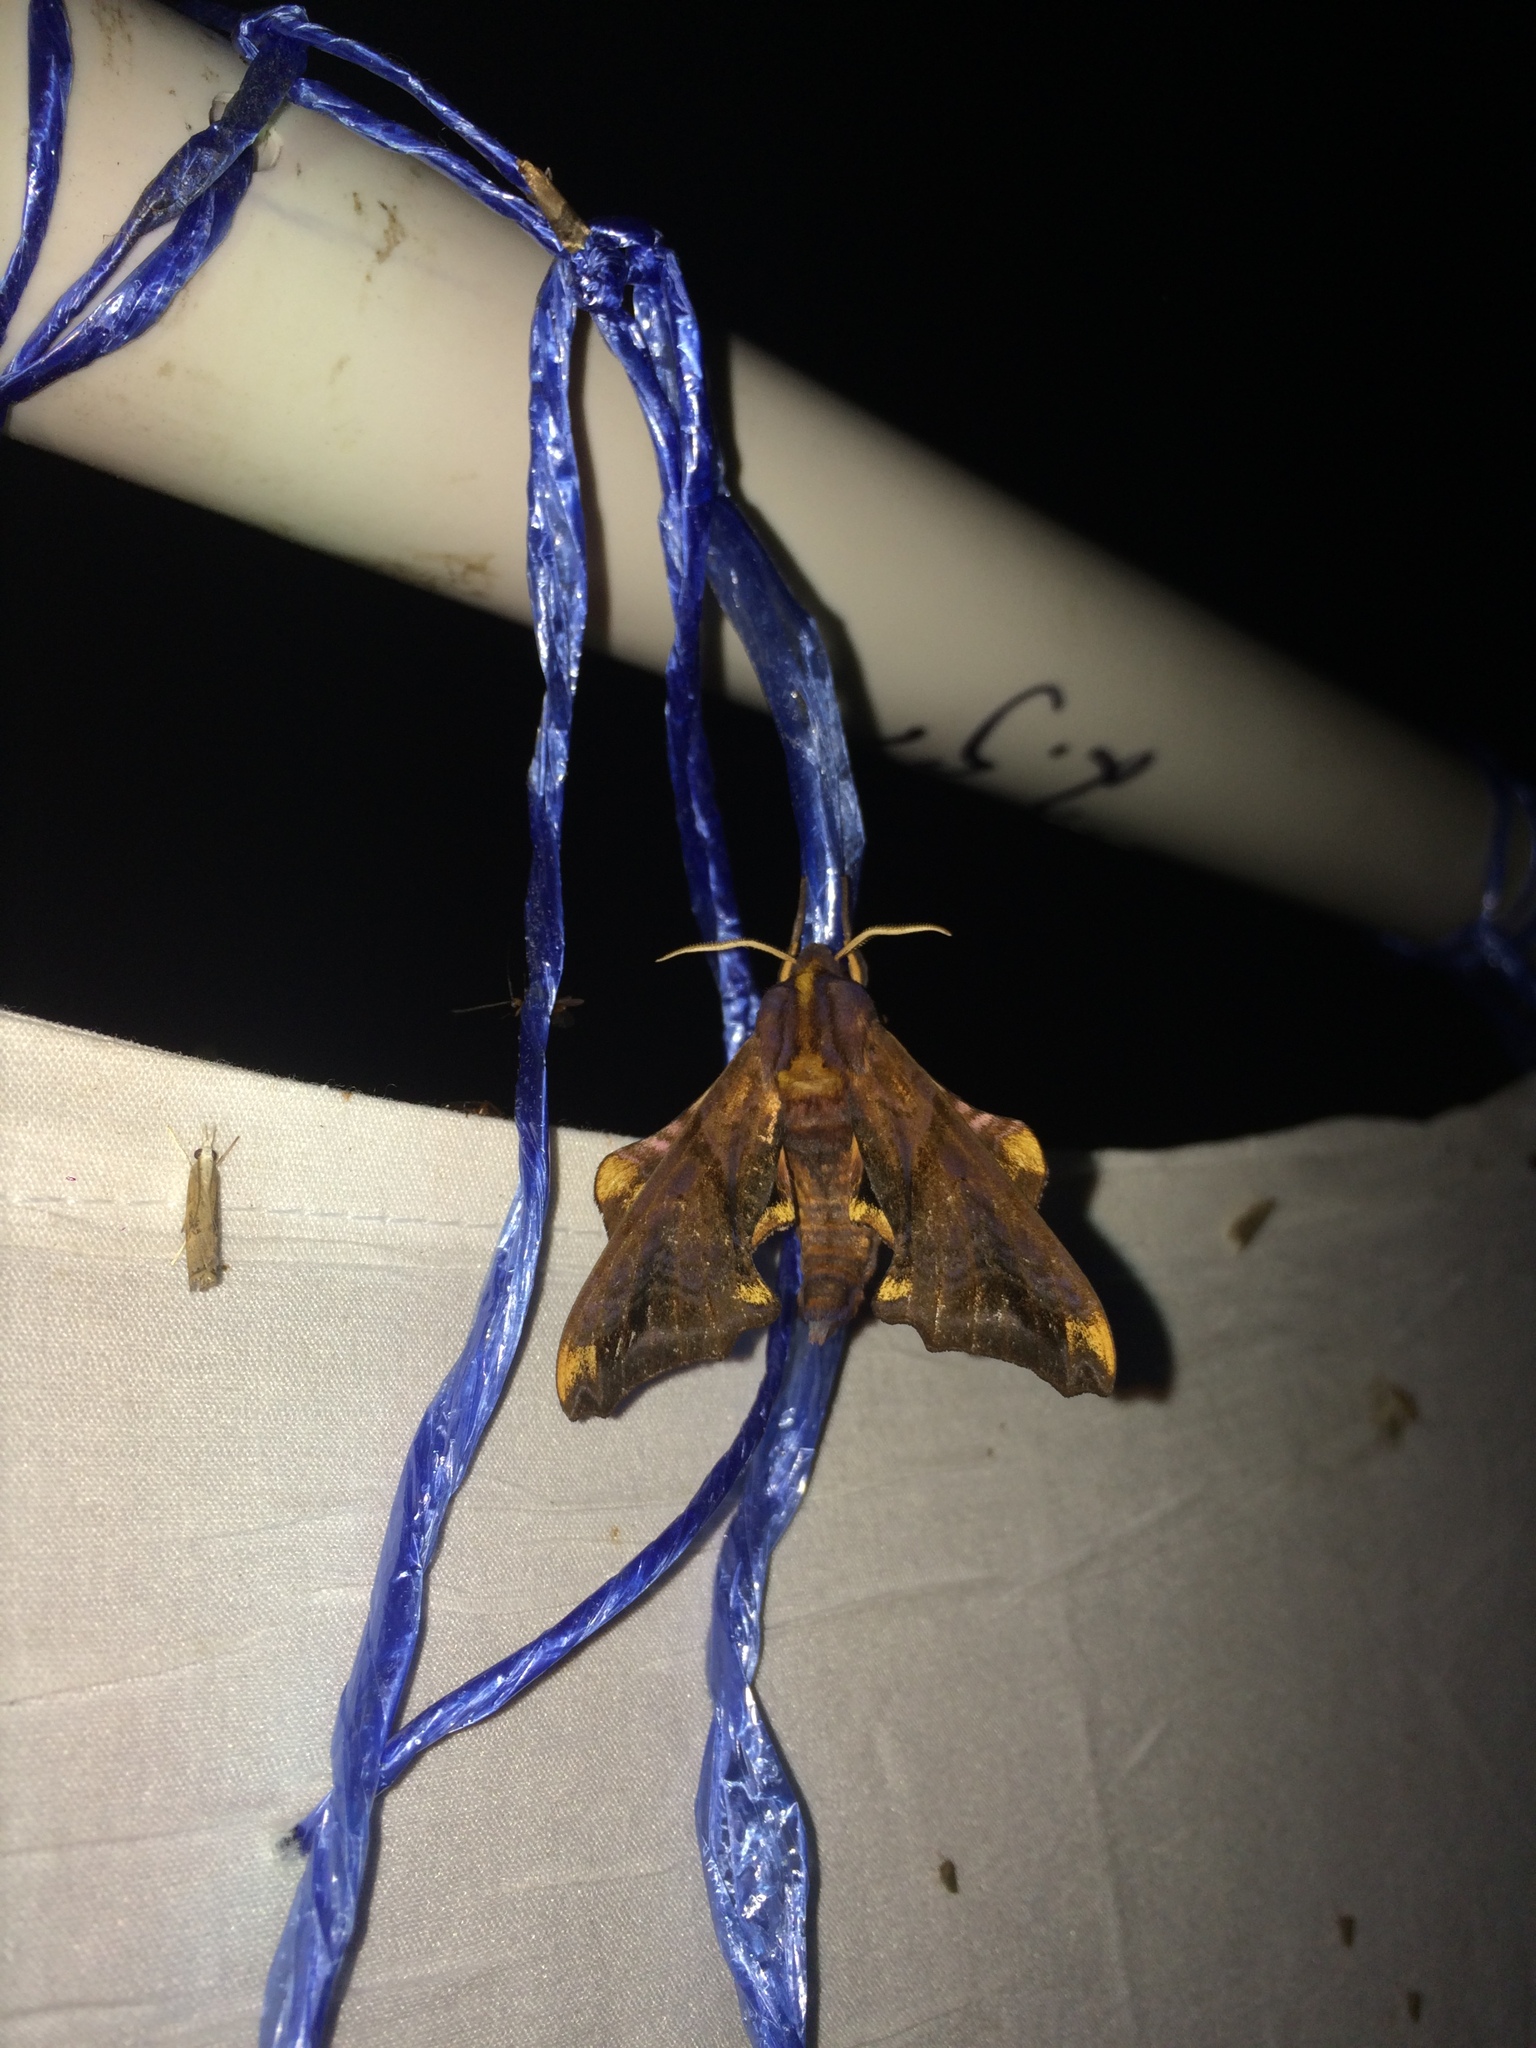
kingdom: Animalia
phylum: Arthropoda
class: Insecta
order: Lepidoptera
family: Sphingidae
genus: Paonias
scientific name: Paonias myops
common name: Small-eyed sphinx
